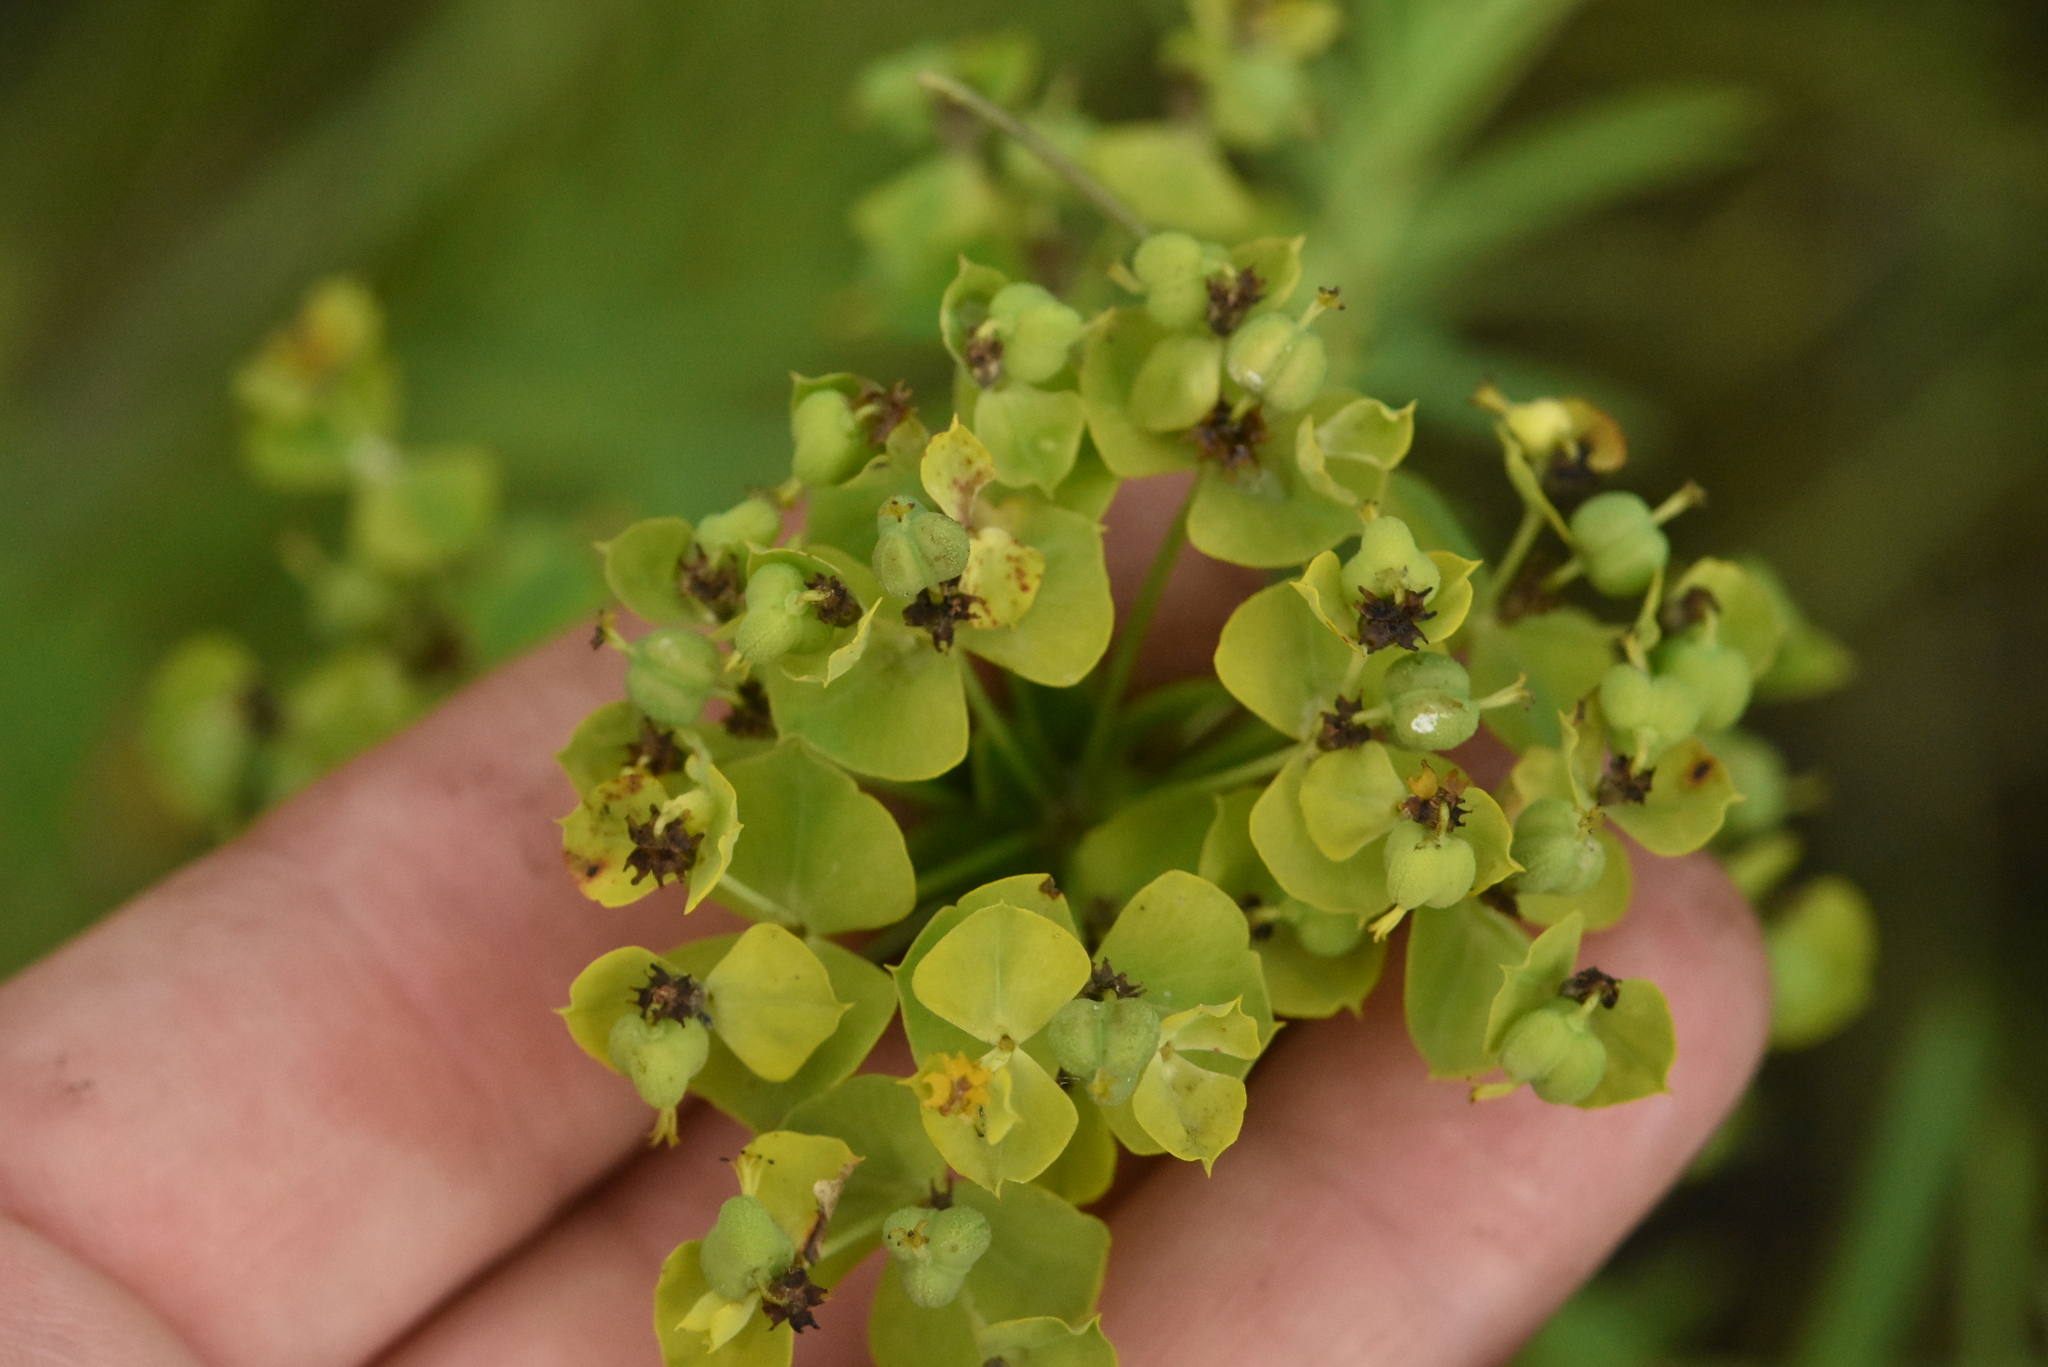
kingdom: Plantae
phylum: Tracheophyta
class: Magnoliopsida
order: Malpighiales
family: Euphorbiaceae
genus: Euphorbia
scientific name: Euphorbia virgata
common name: Leafy spurge
